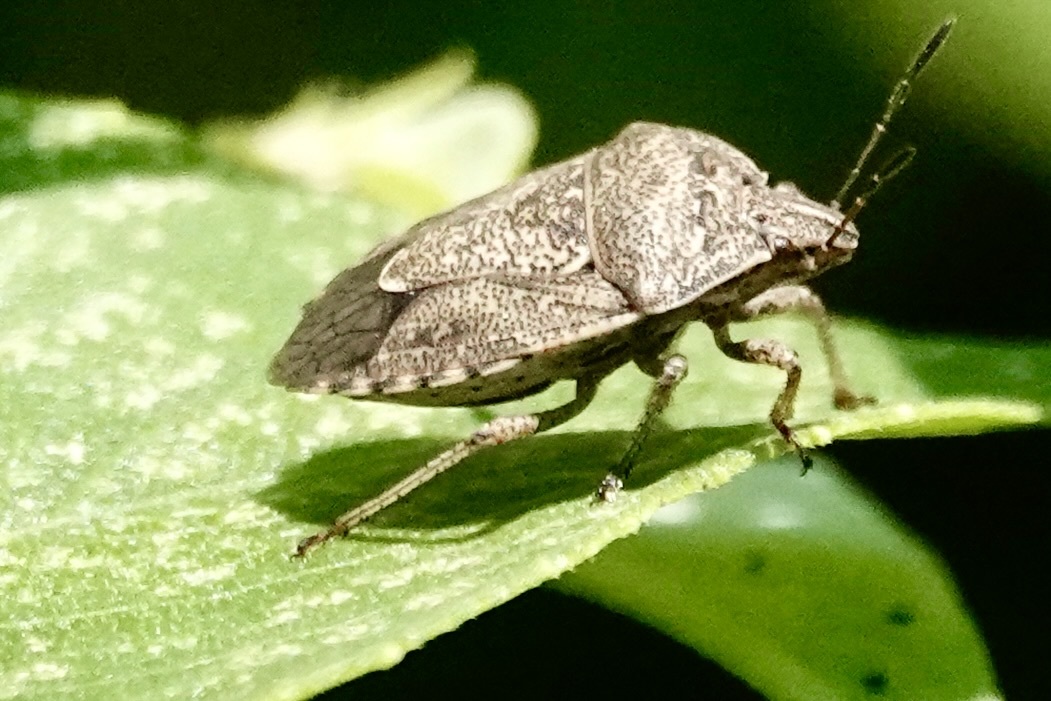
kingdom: Animalia
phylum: Arthropoda
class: Insecta
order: Hemiptera
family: Pentatomidae
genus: Hymenarcys
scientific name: Hymenarcys nervosa
